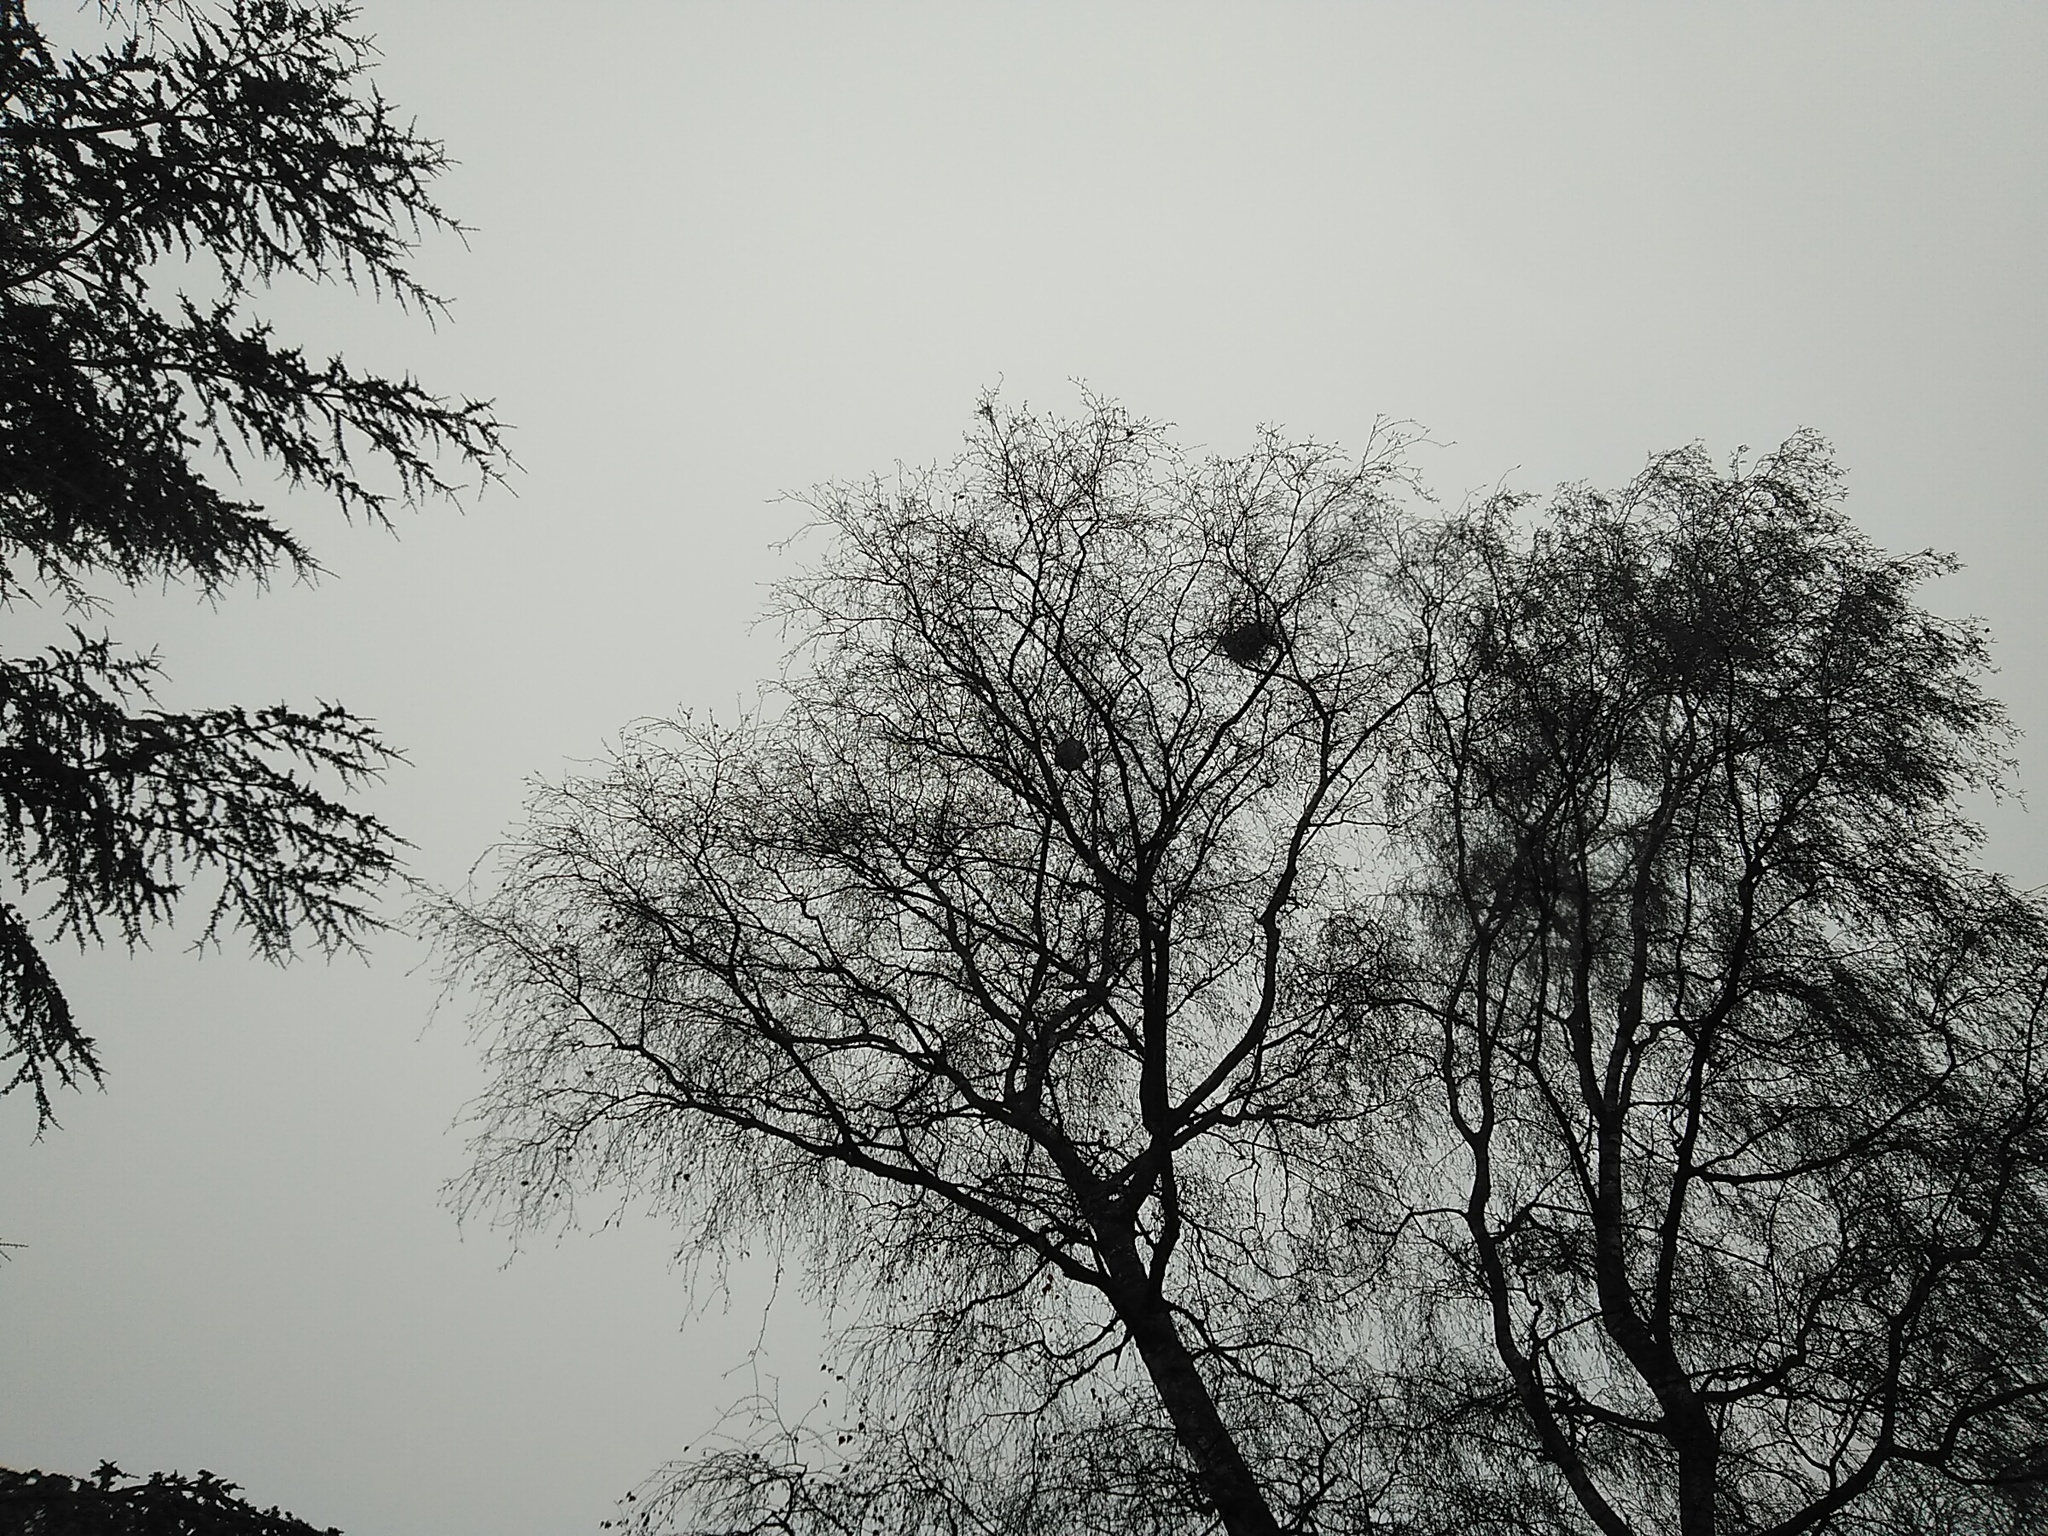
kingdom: Animalia
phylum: Arthropoda
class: Insecta
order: Hymenoptera
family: Vespidae
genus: Vespa
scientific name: Vespa velutina
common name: Asian hornet
